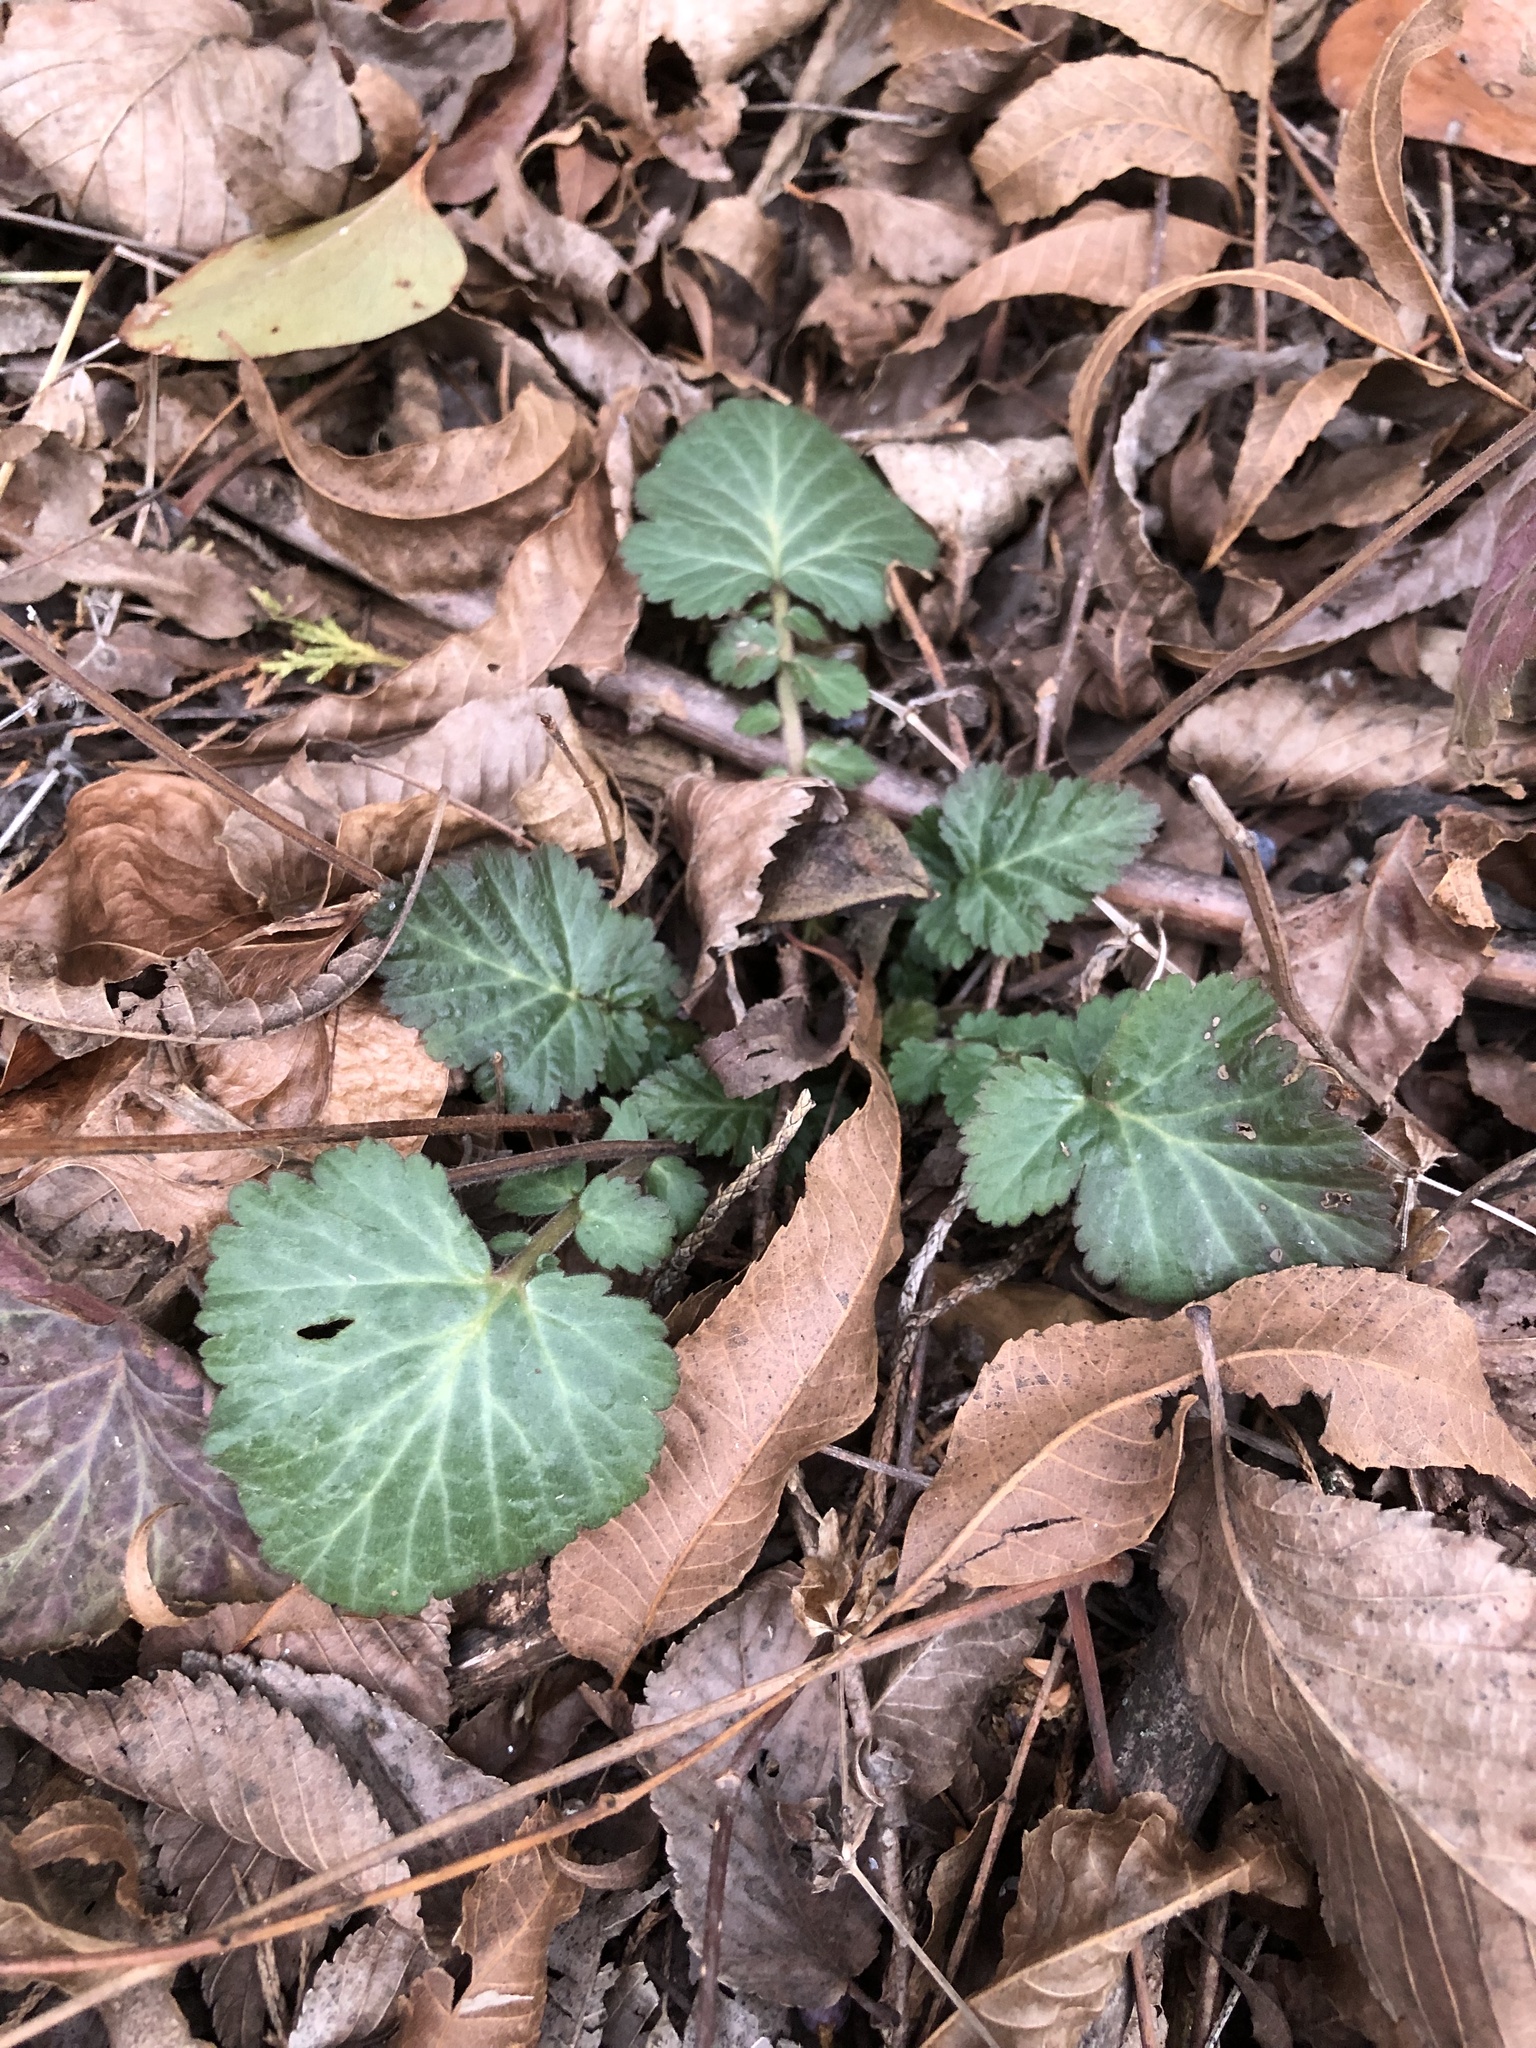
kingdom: Plantae
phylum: Tracheophyta
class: Magnoliopsida
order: Rosales
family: Rosaceae
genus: Geum
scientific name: Geum canadense
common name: White avens
